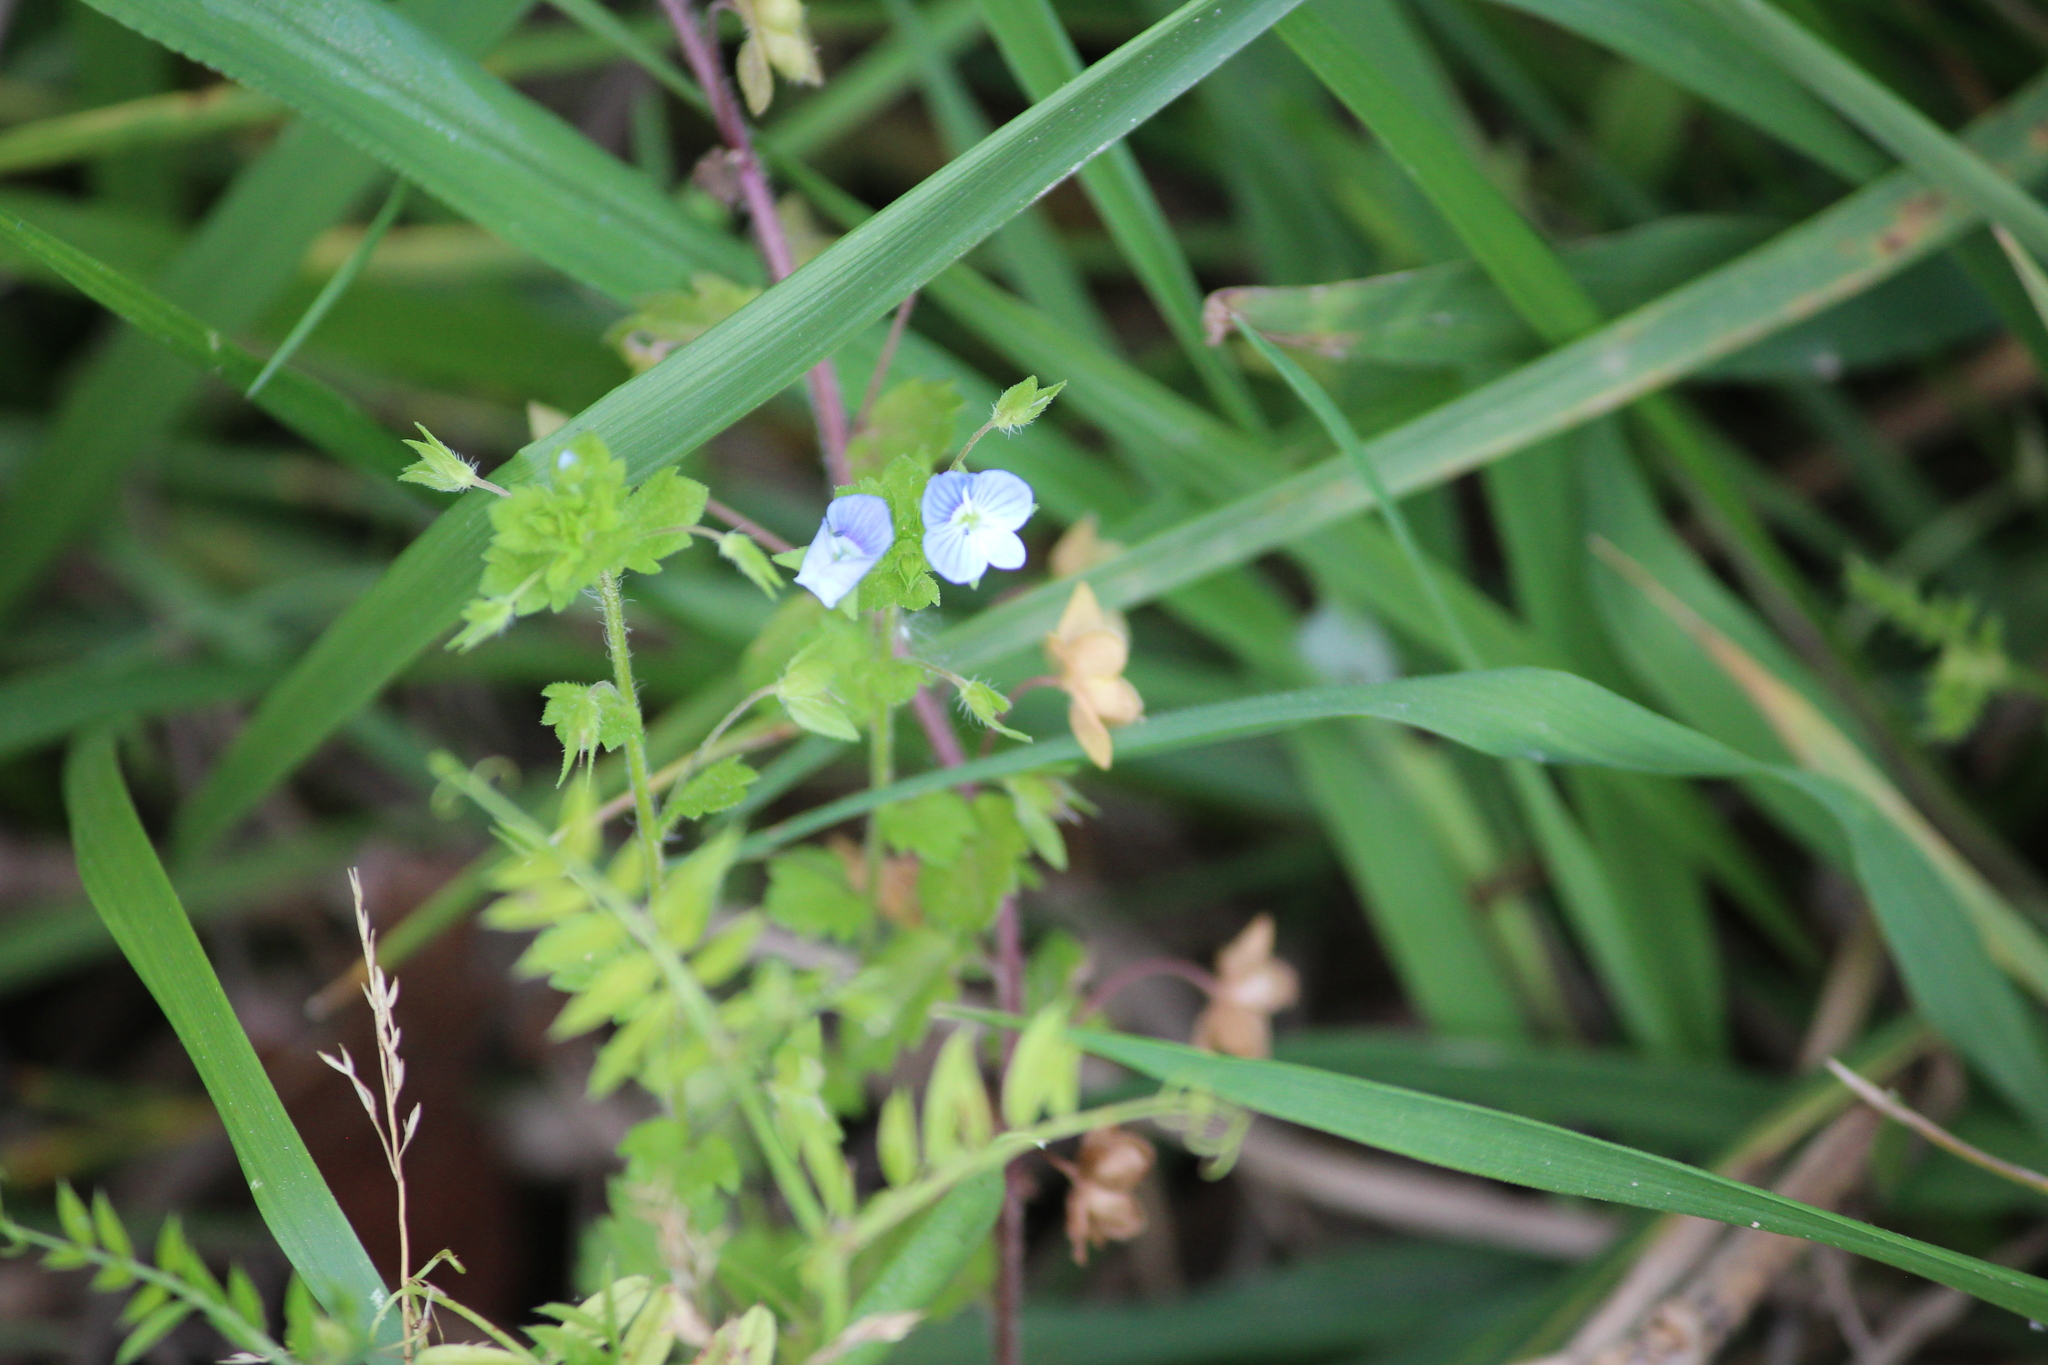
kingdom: Plantae
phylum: Tracheophyta
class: Magnoliopsida
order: Lamiales
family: Plantaginaceae
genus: Veronica
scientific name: Veronica persica
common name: Common field-speedwell
